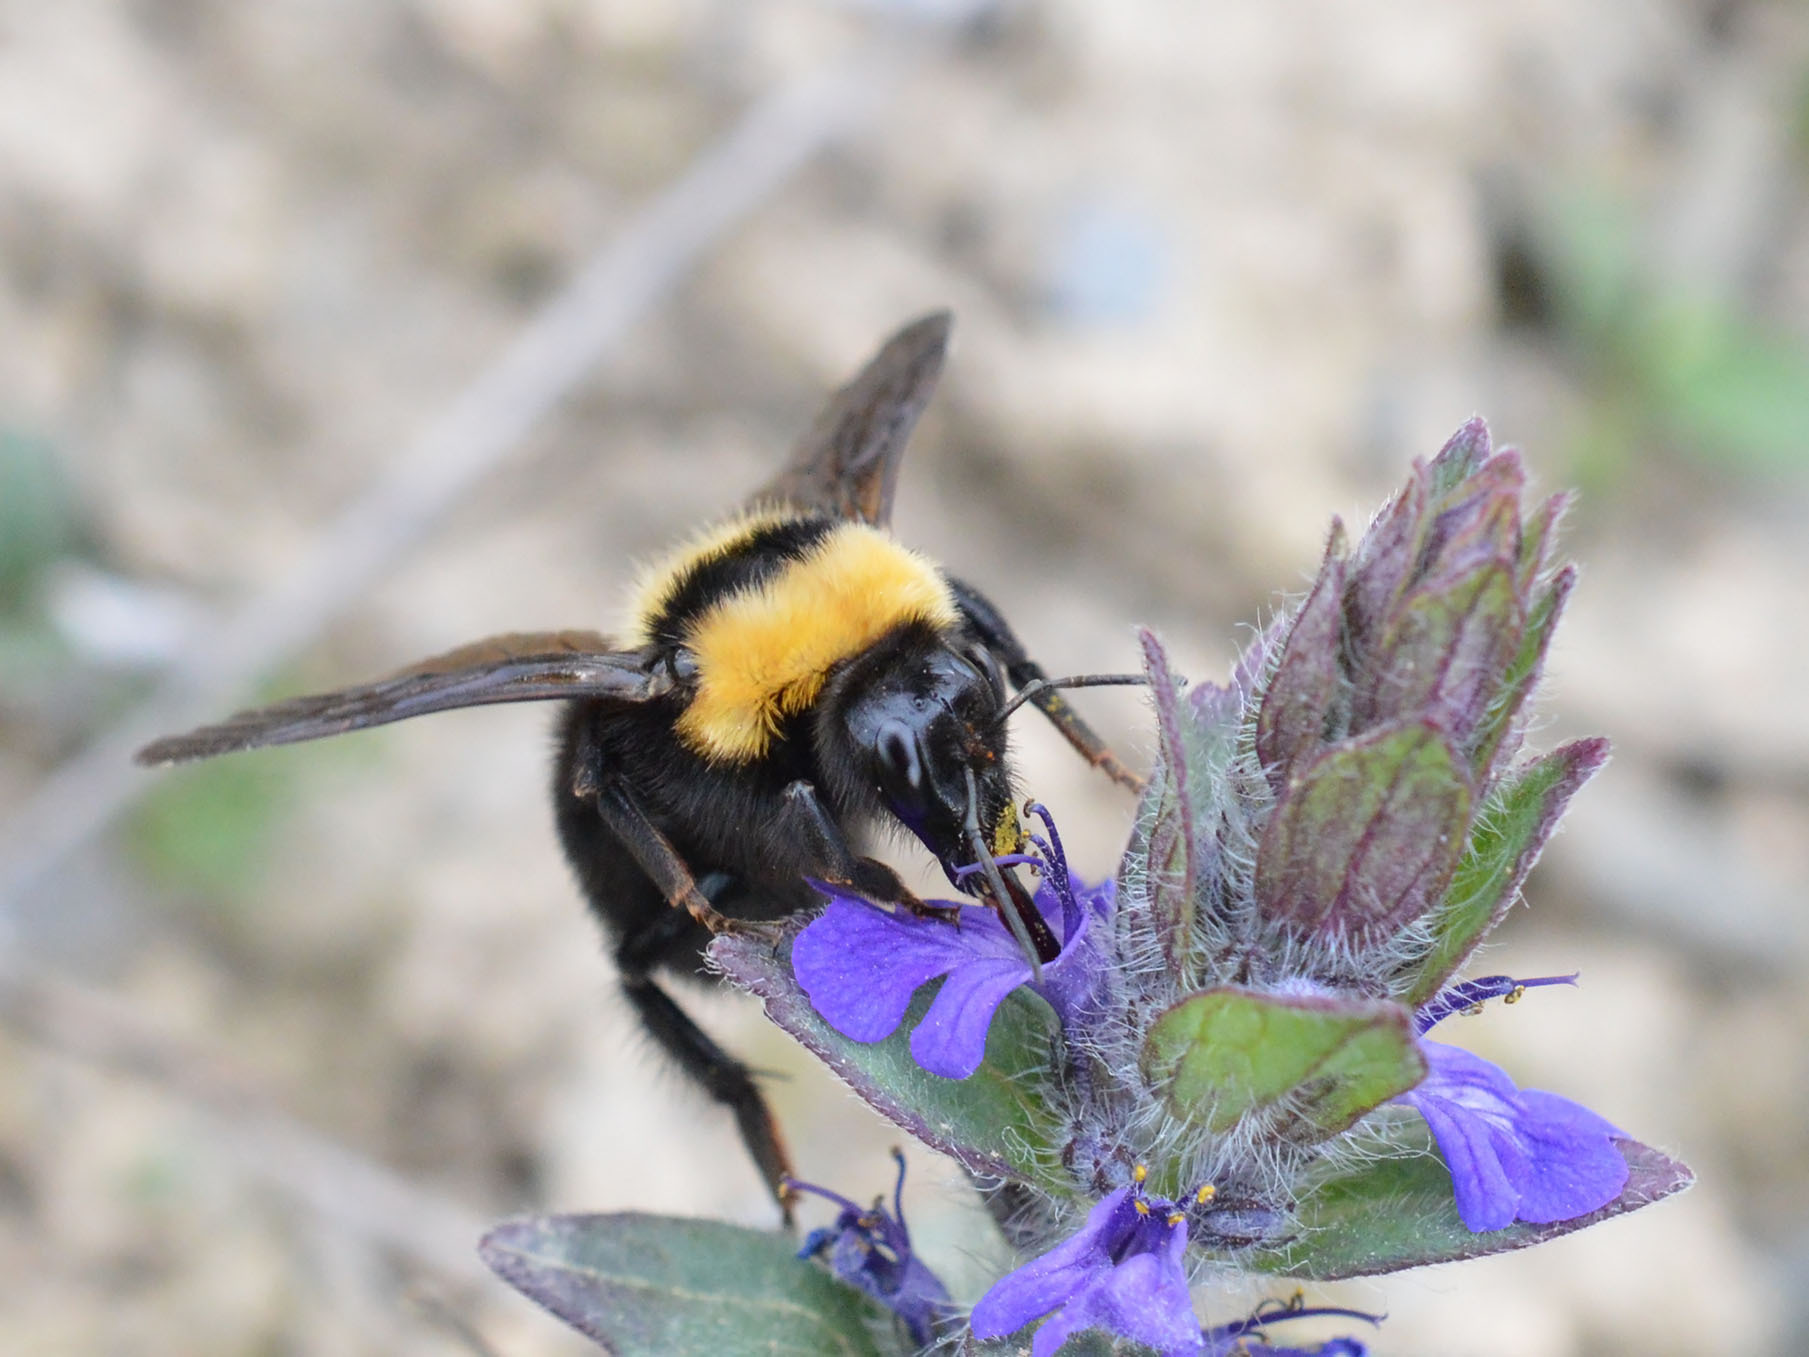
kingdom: Animalia
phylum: Arthropoda
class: Insecta
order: Hymenoptera
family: Apidae
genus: Bombus
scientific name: Bombus argillaceus
